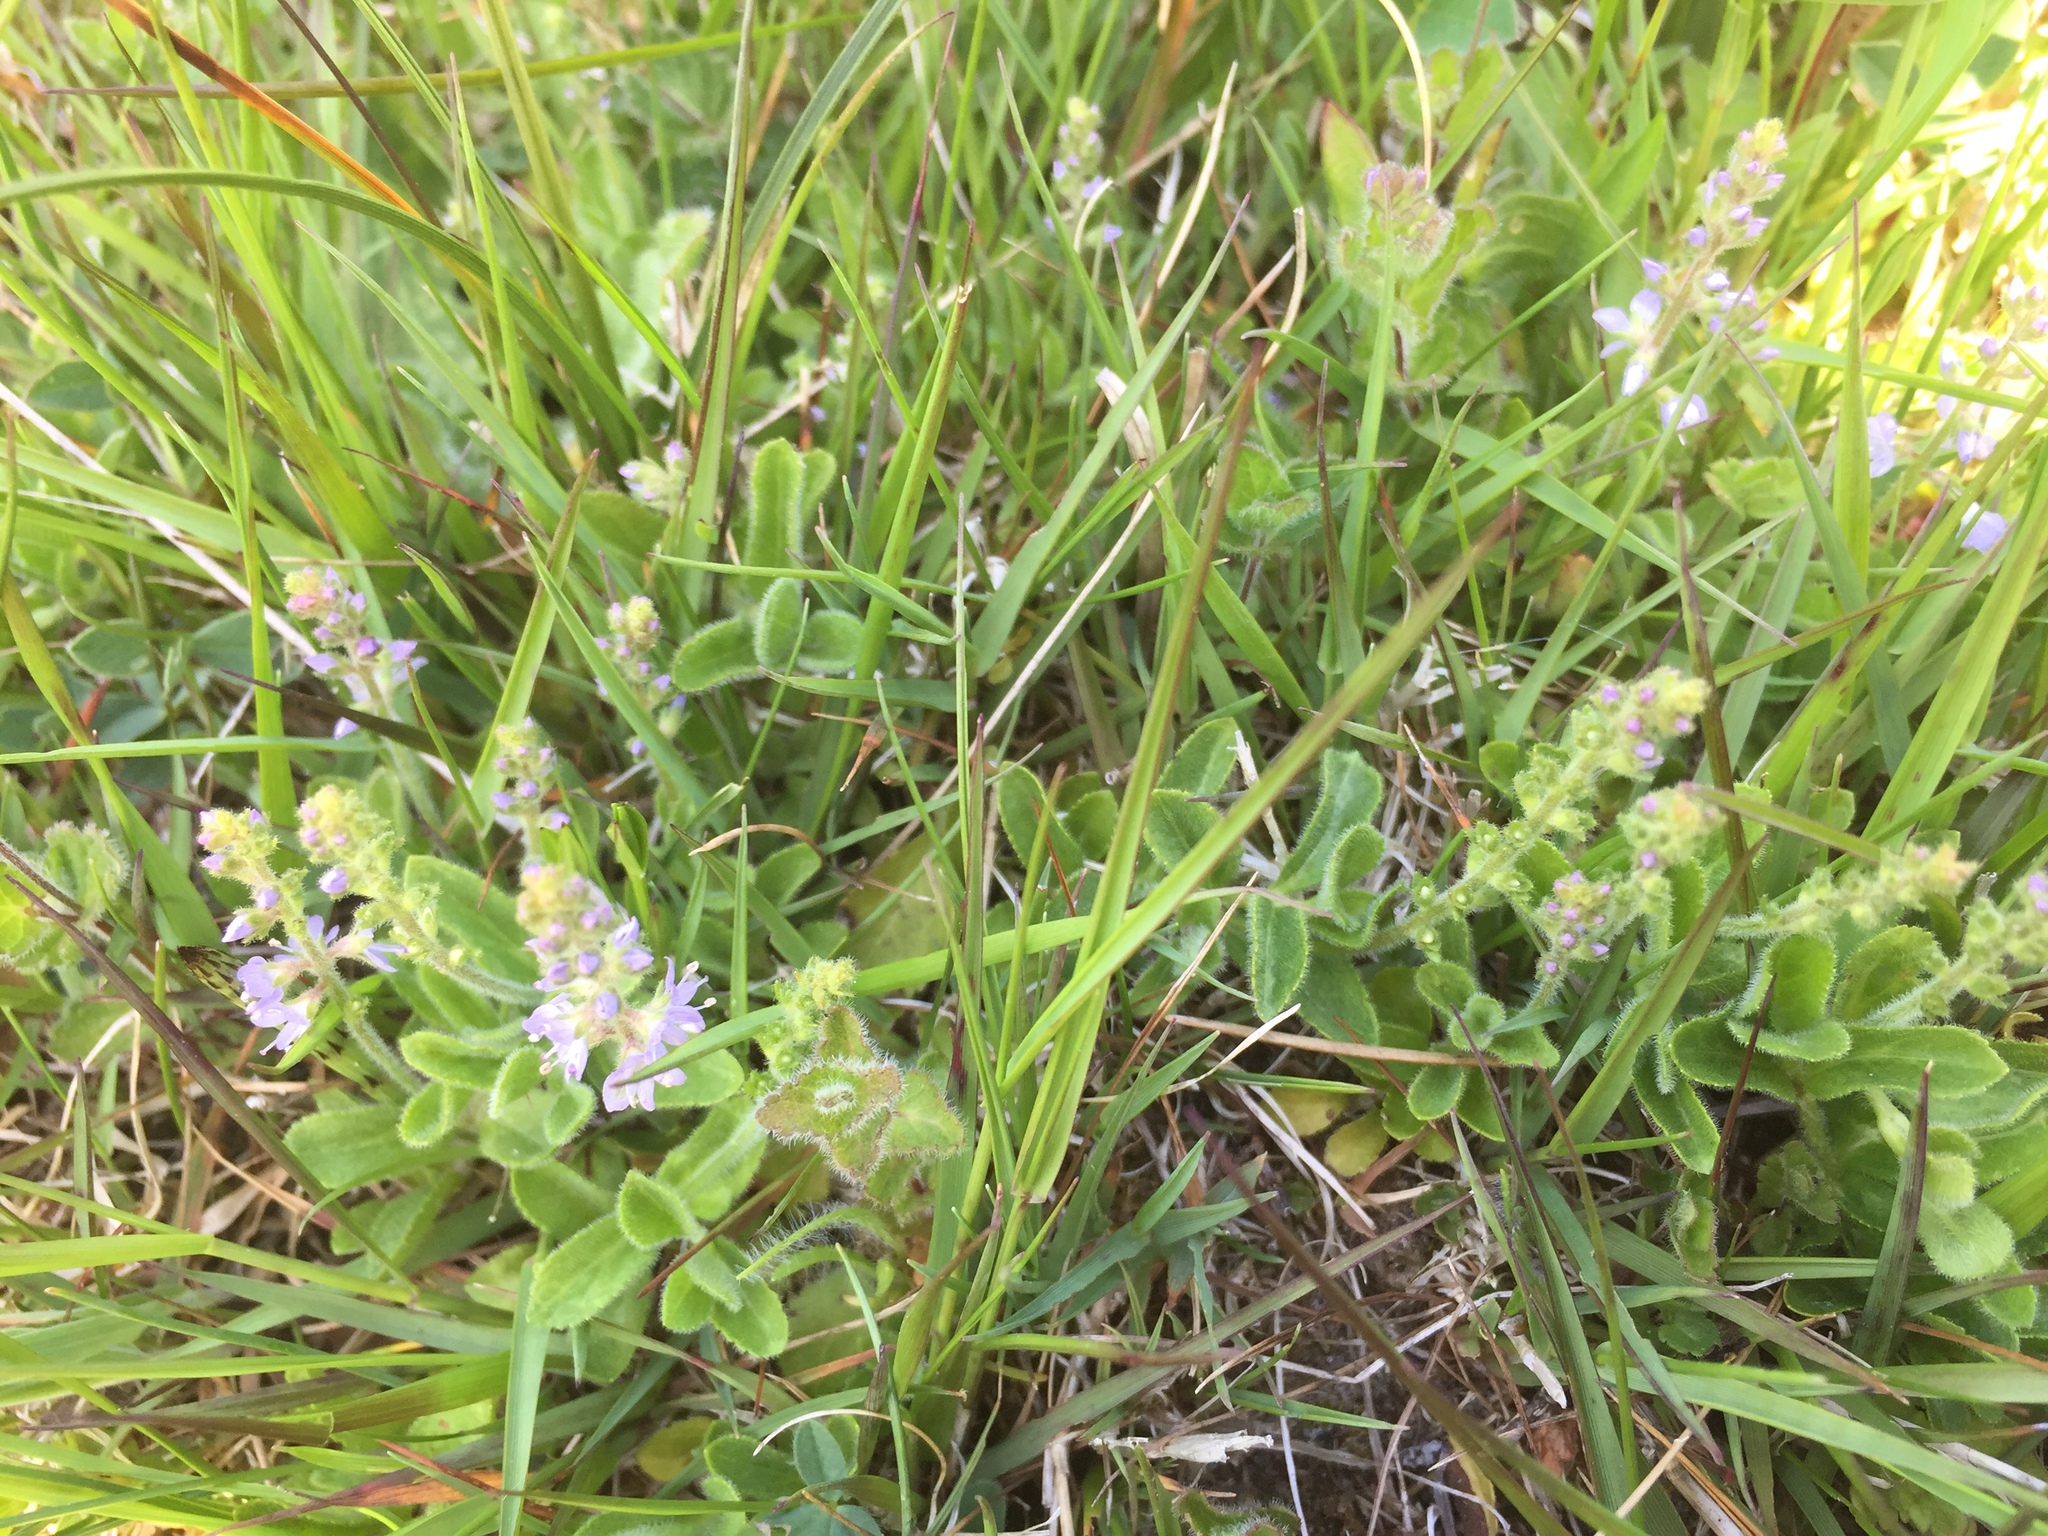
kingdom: Plantae
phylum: Tracheophyta
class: Magnoliopsida
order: Lamiales
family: Plantaginaceae
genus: Veronica
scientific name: Veronica officinalis
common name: Common speedwell
